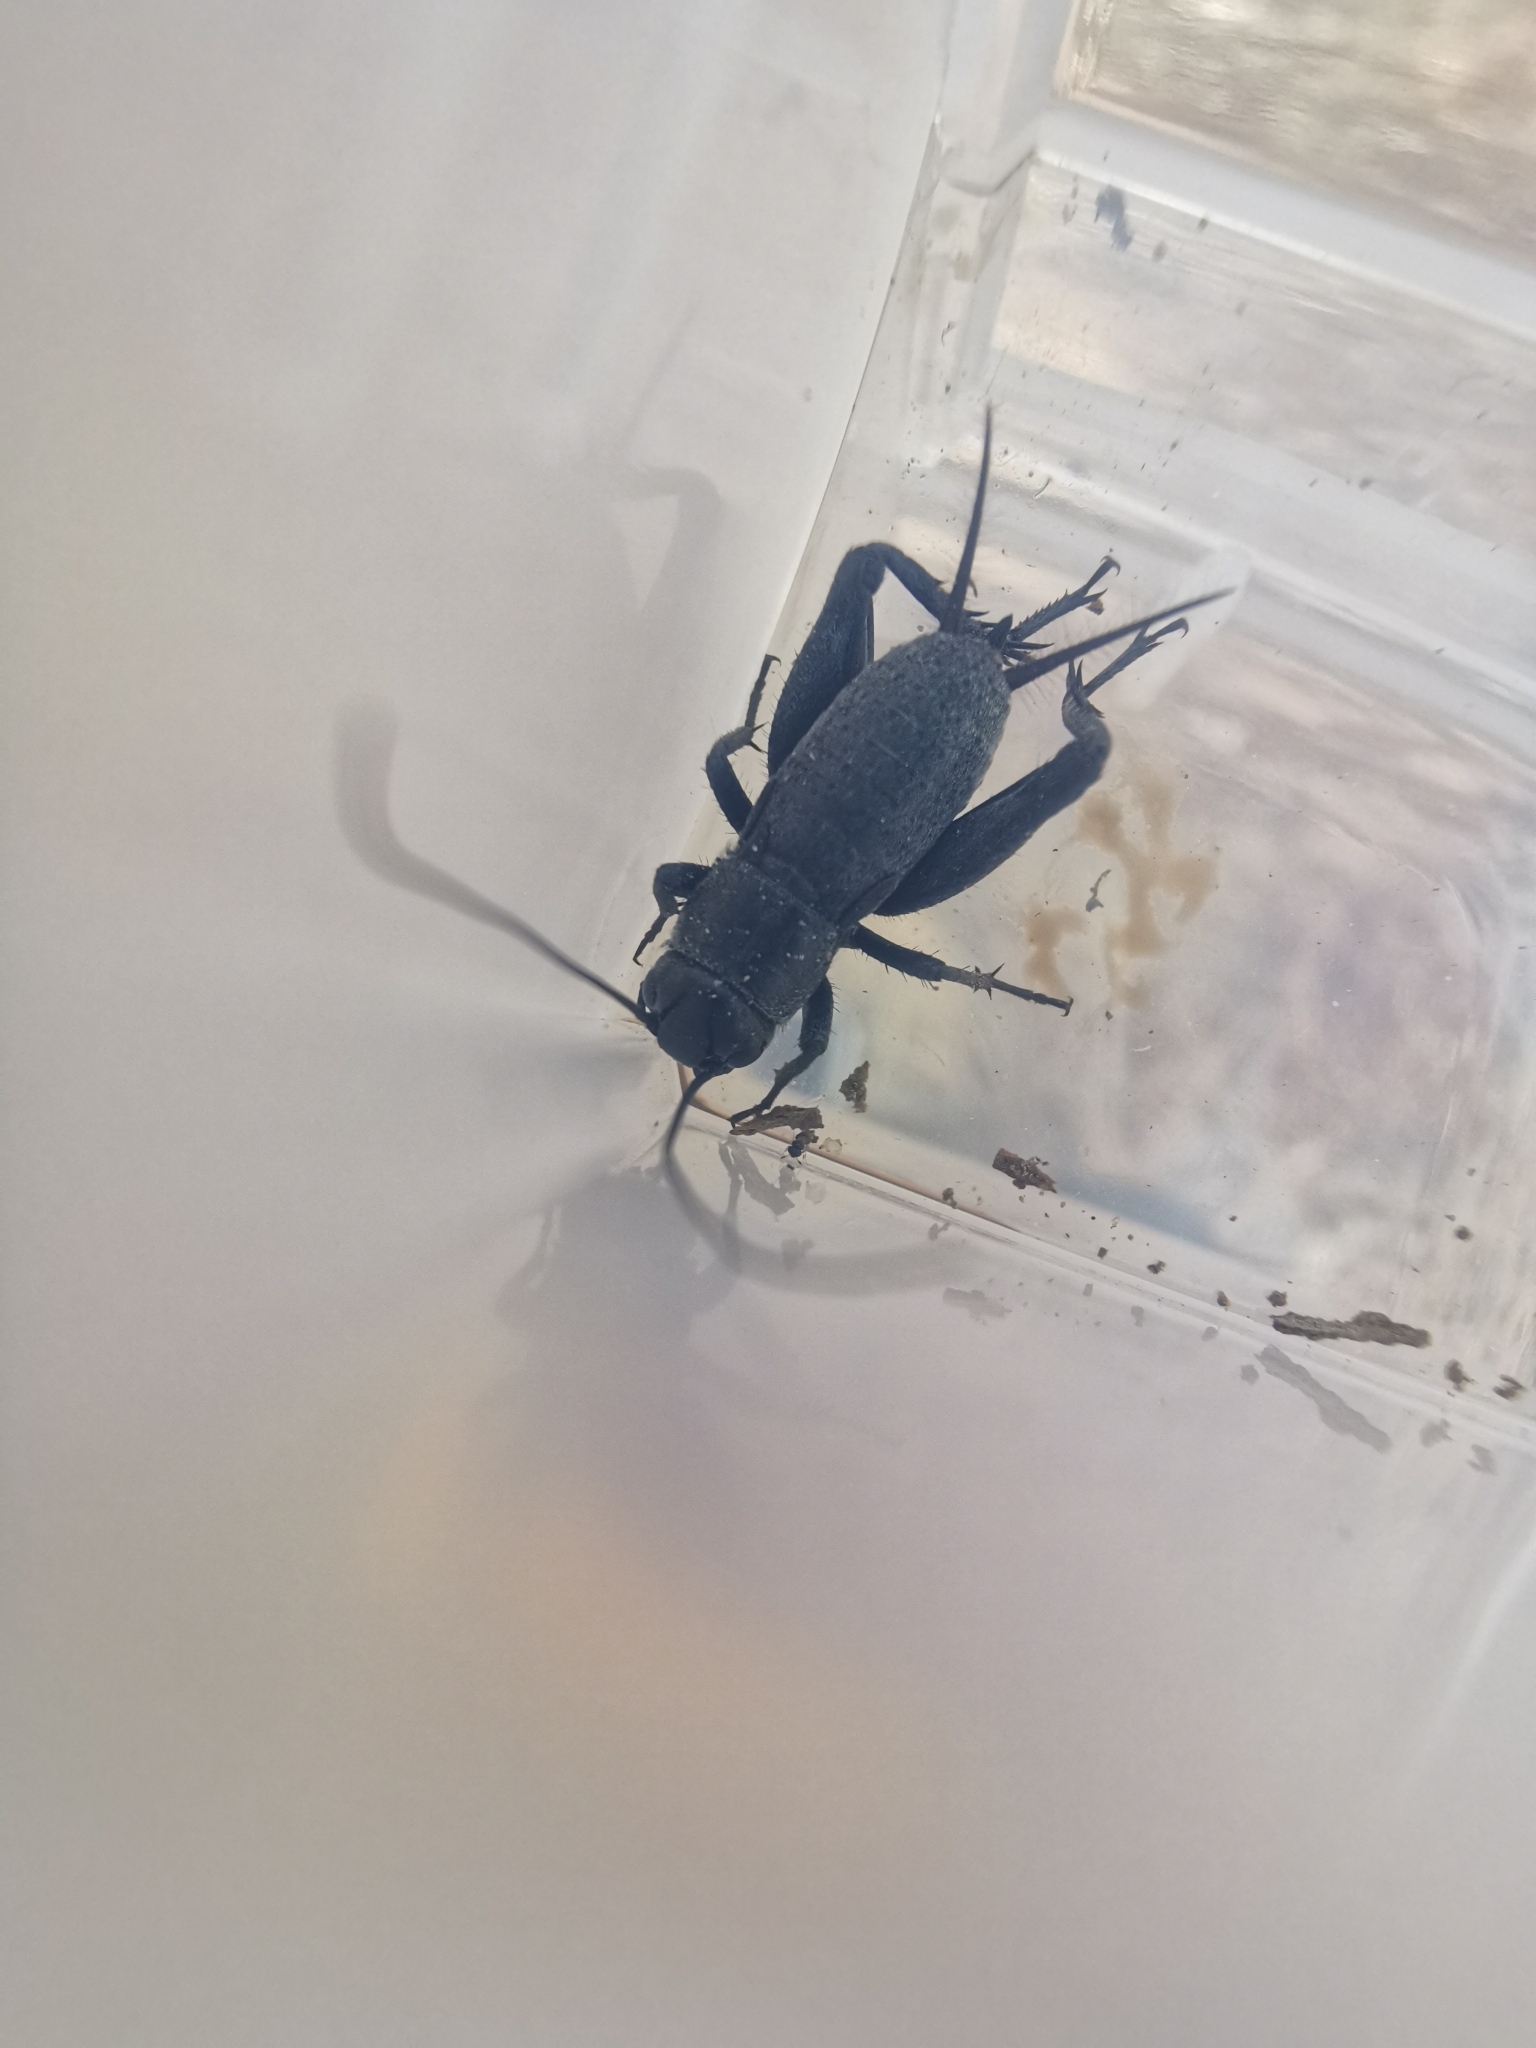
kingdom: Animalia
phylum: Arthropoda
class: Insecta
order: Orthoptera
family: Gryllidae
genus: Gryllus
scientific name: Gryllus veletis
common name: Spring field cricket
